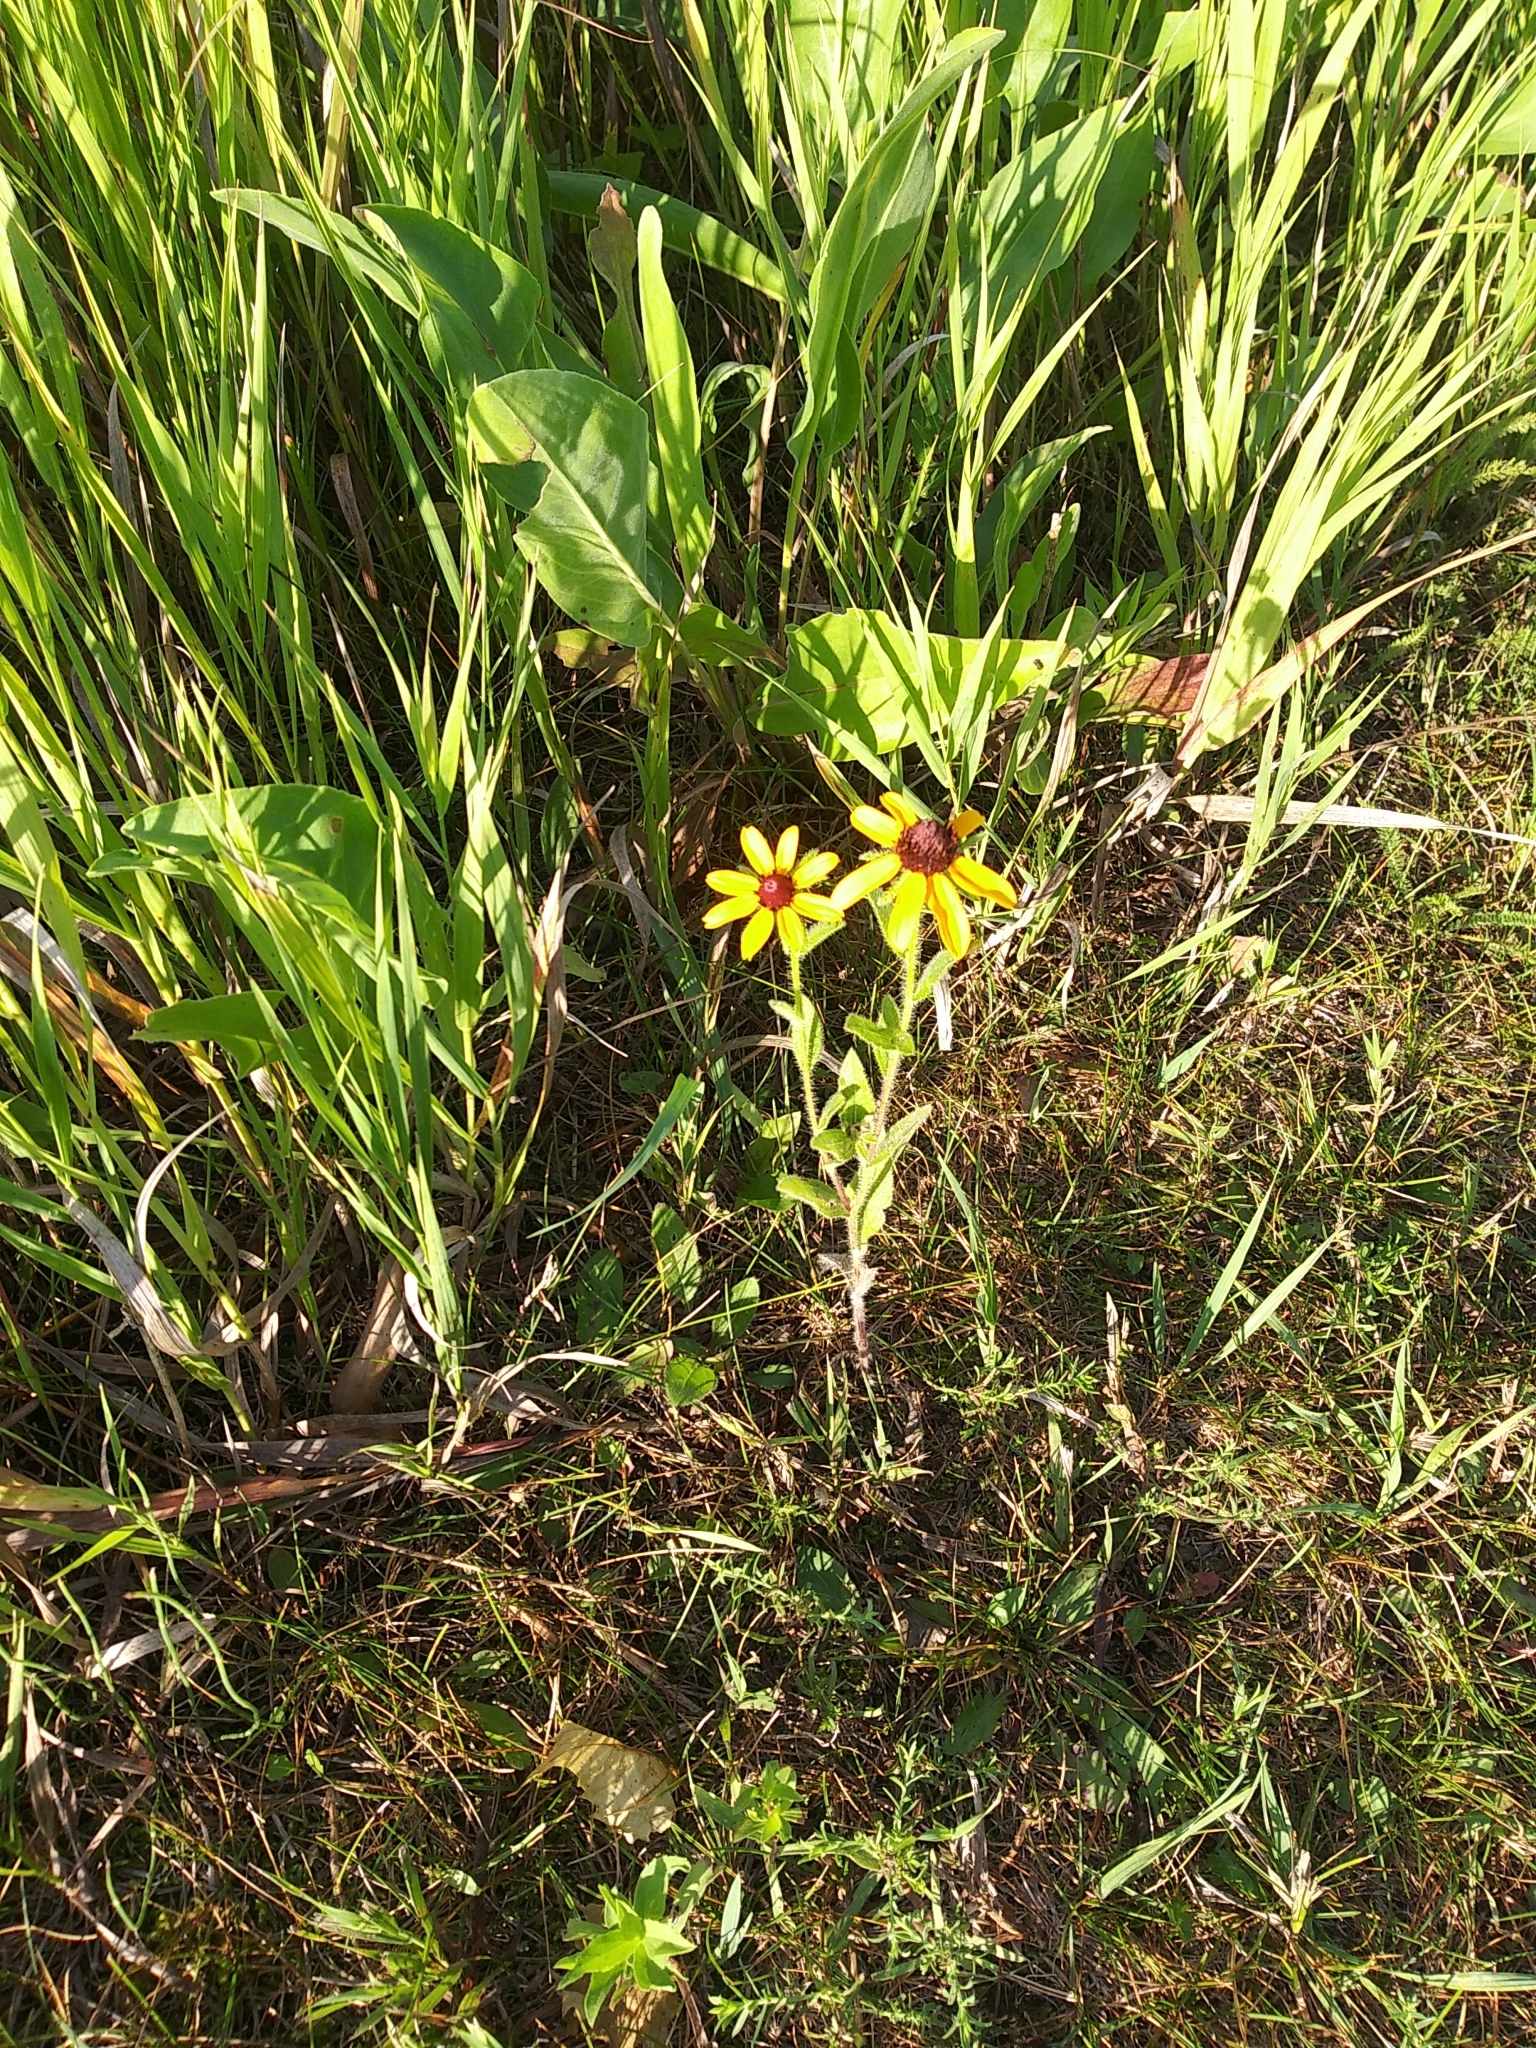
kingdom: Plantae
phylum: Tracheophyta
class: Magnoliopsida
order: Asterales
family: Asteraceae
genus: Rudbeckia
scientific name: Rudbeckia hirta
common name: Black-eyed-susan
